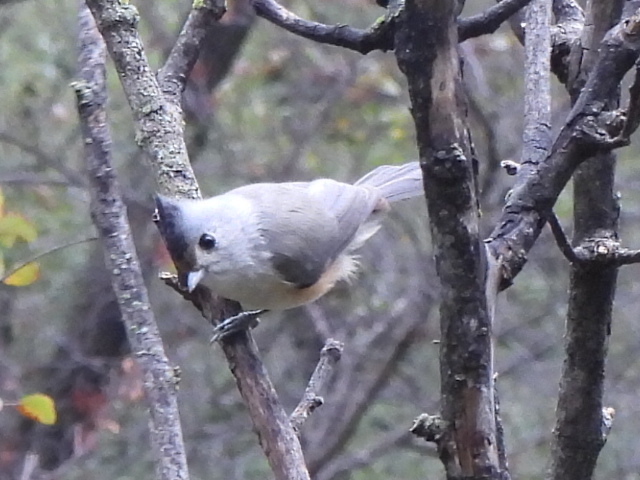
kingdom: Animalia
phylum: Chordata
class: Aves
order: Passeriformes
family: Paridae
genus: Baeolophus
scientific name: Baeolophus
